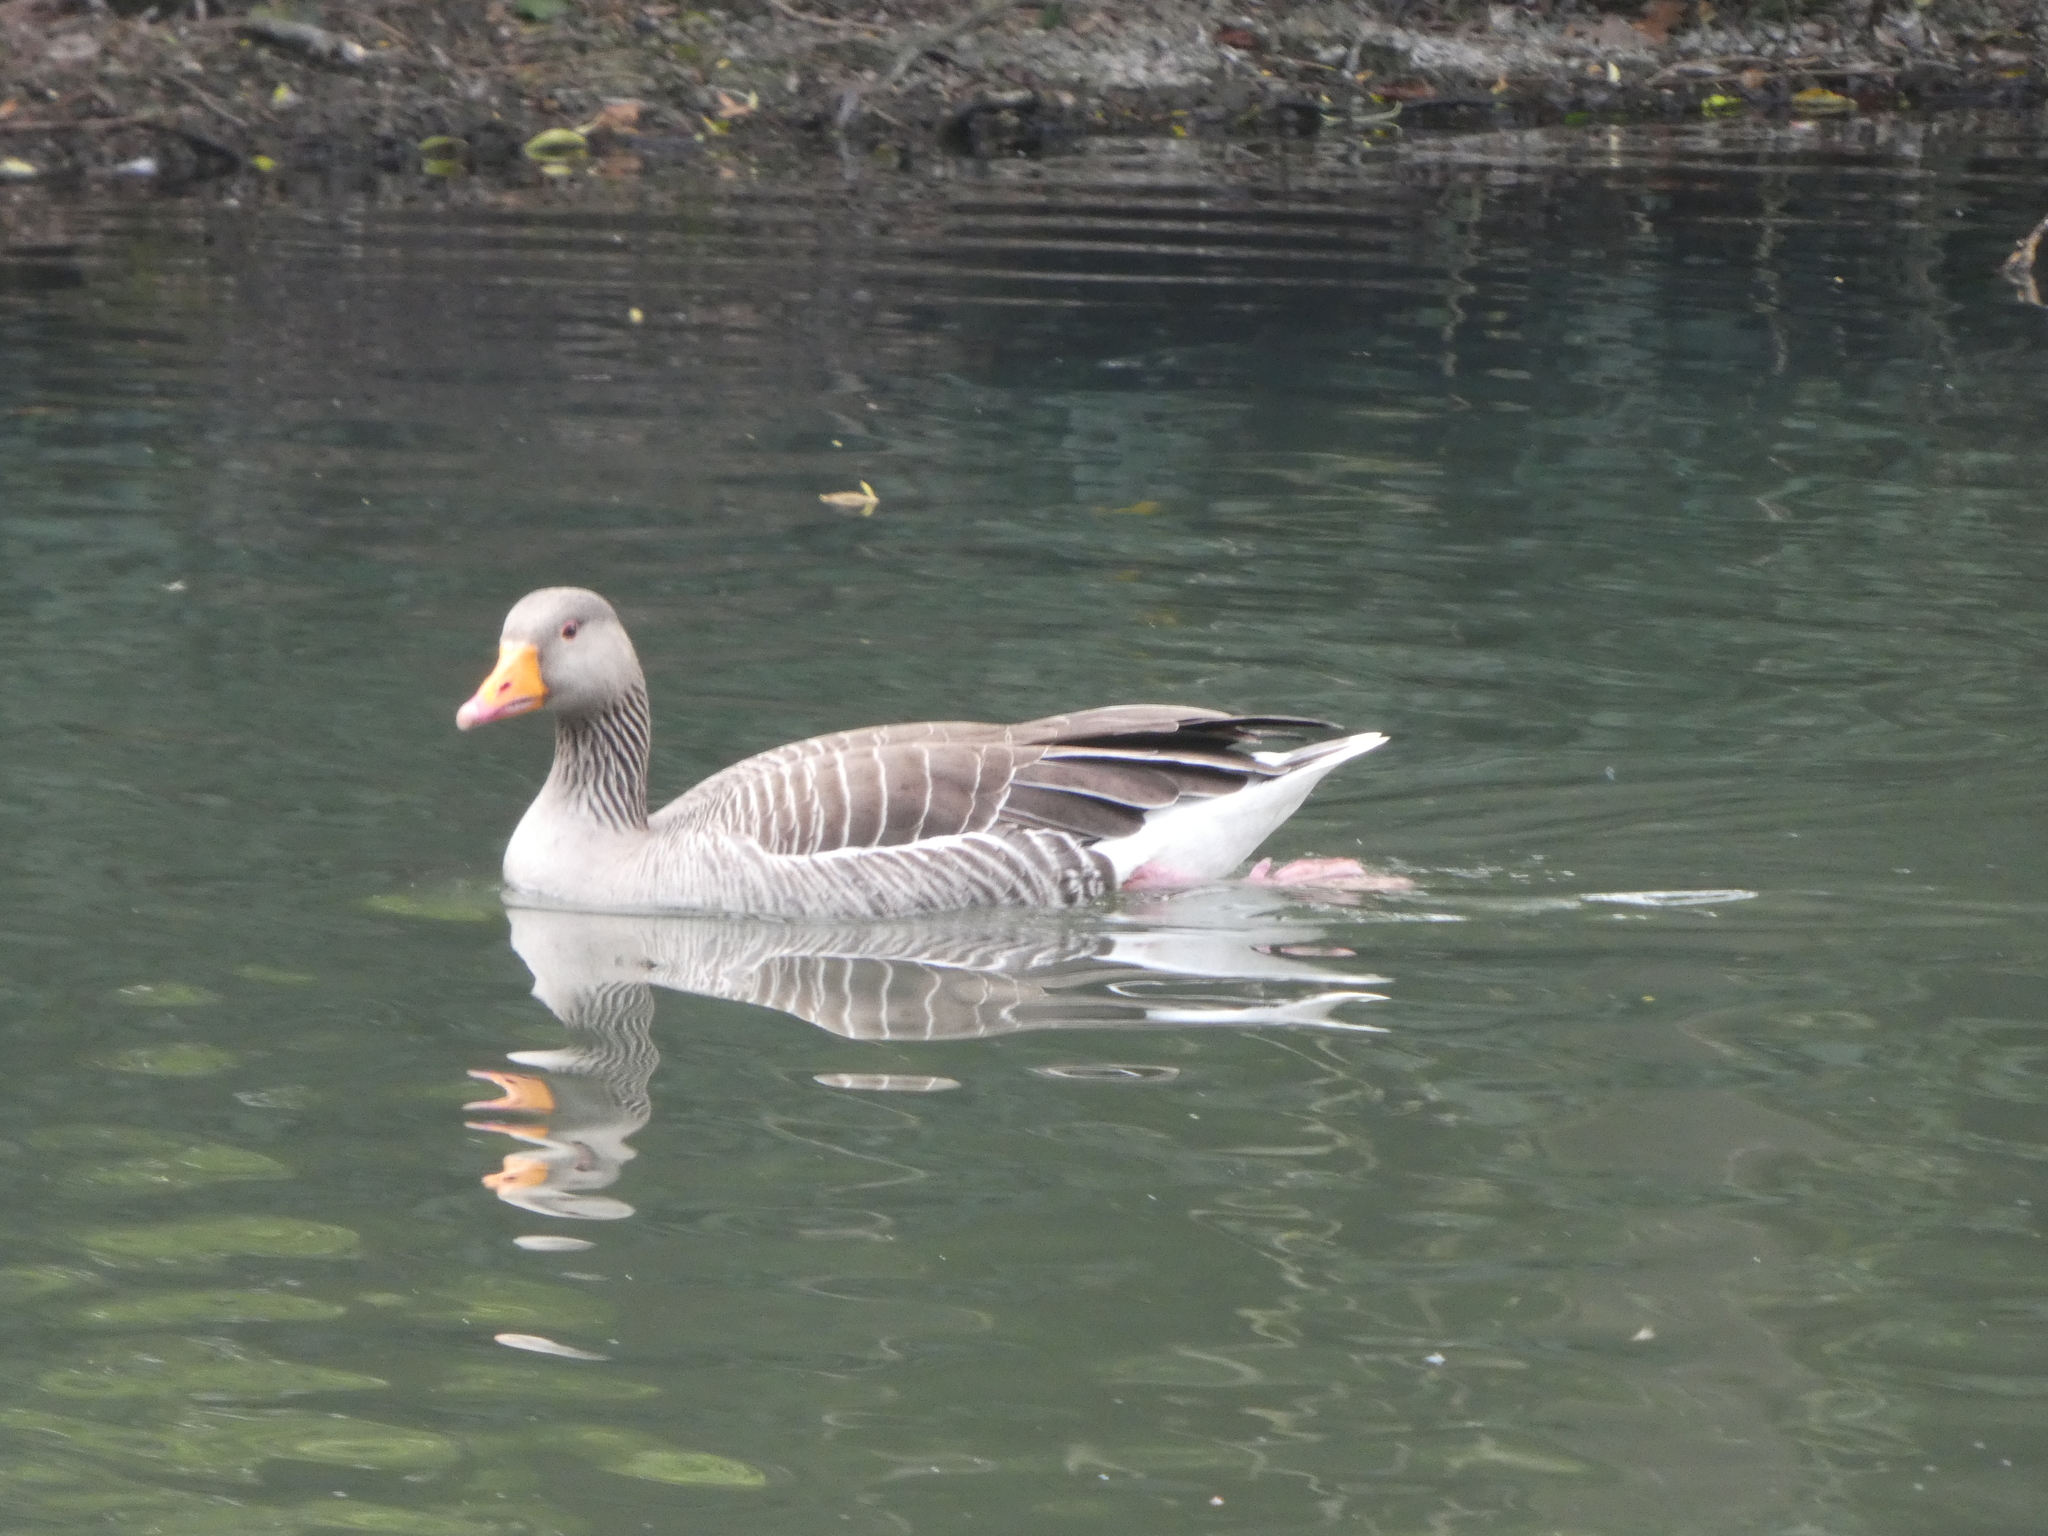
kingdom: Animalia
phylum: Chordata
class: Aves
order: Anseriformes
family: Anatidae
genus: Anser
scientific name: Anser anser
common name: Greylag goose
